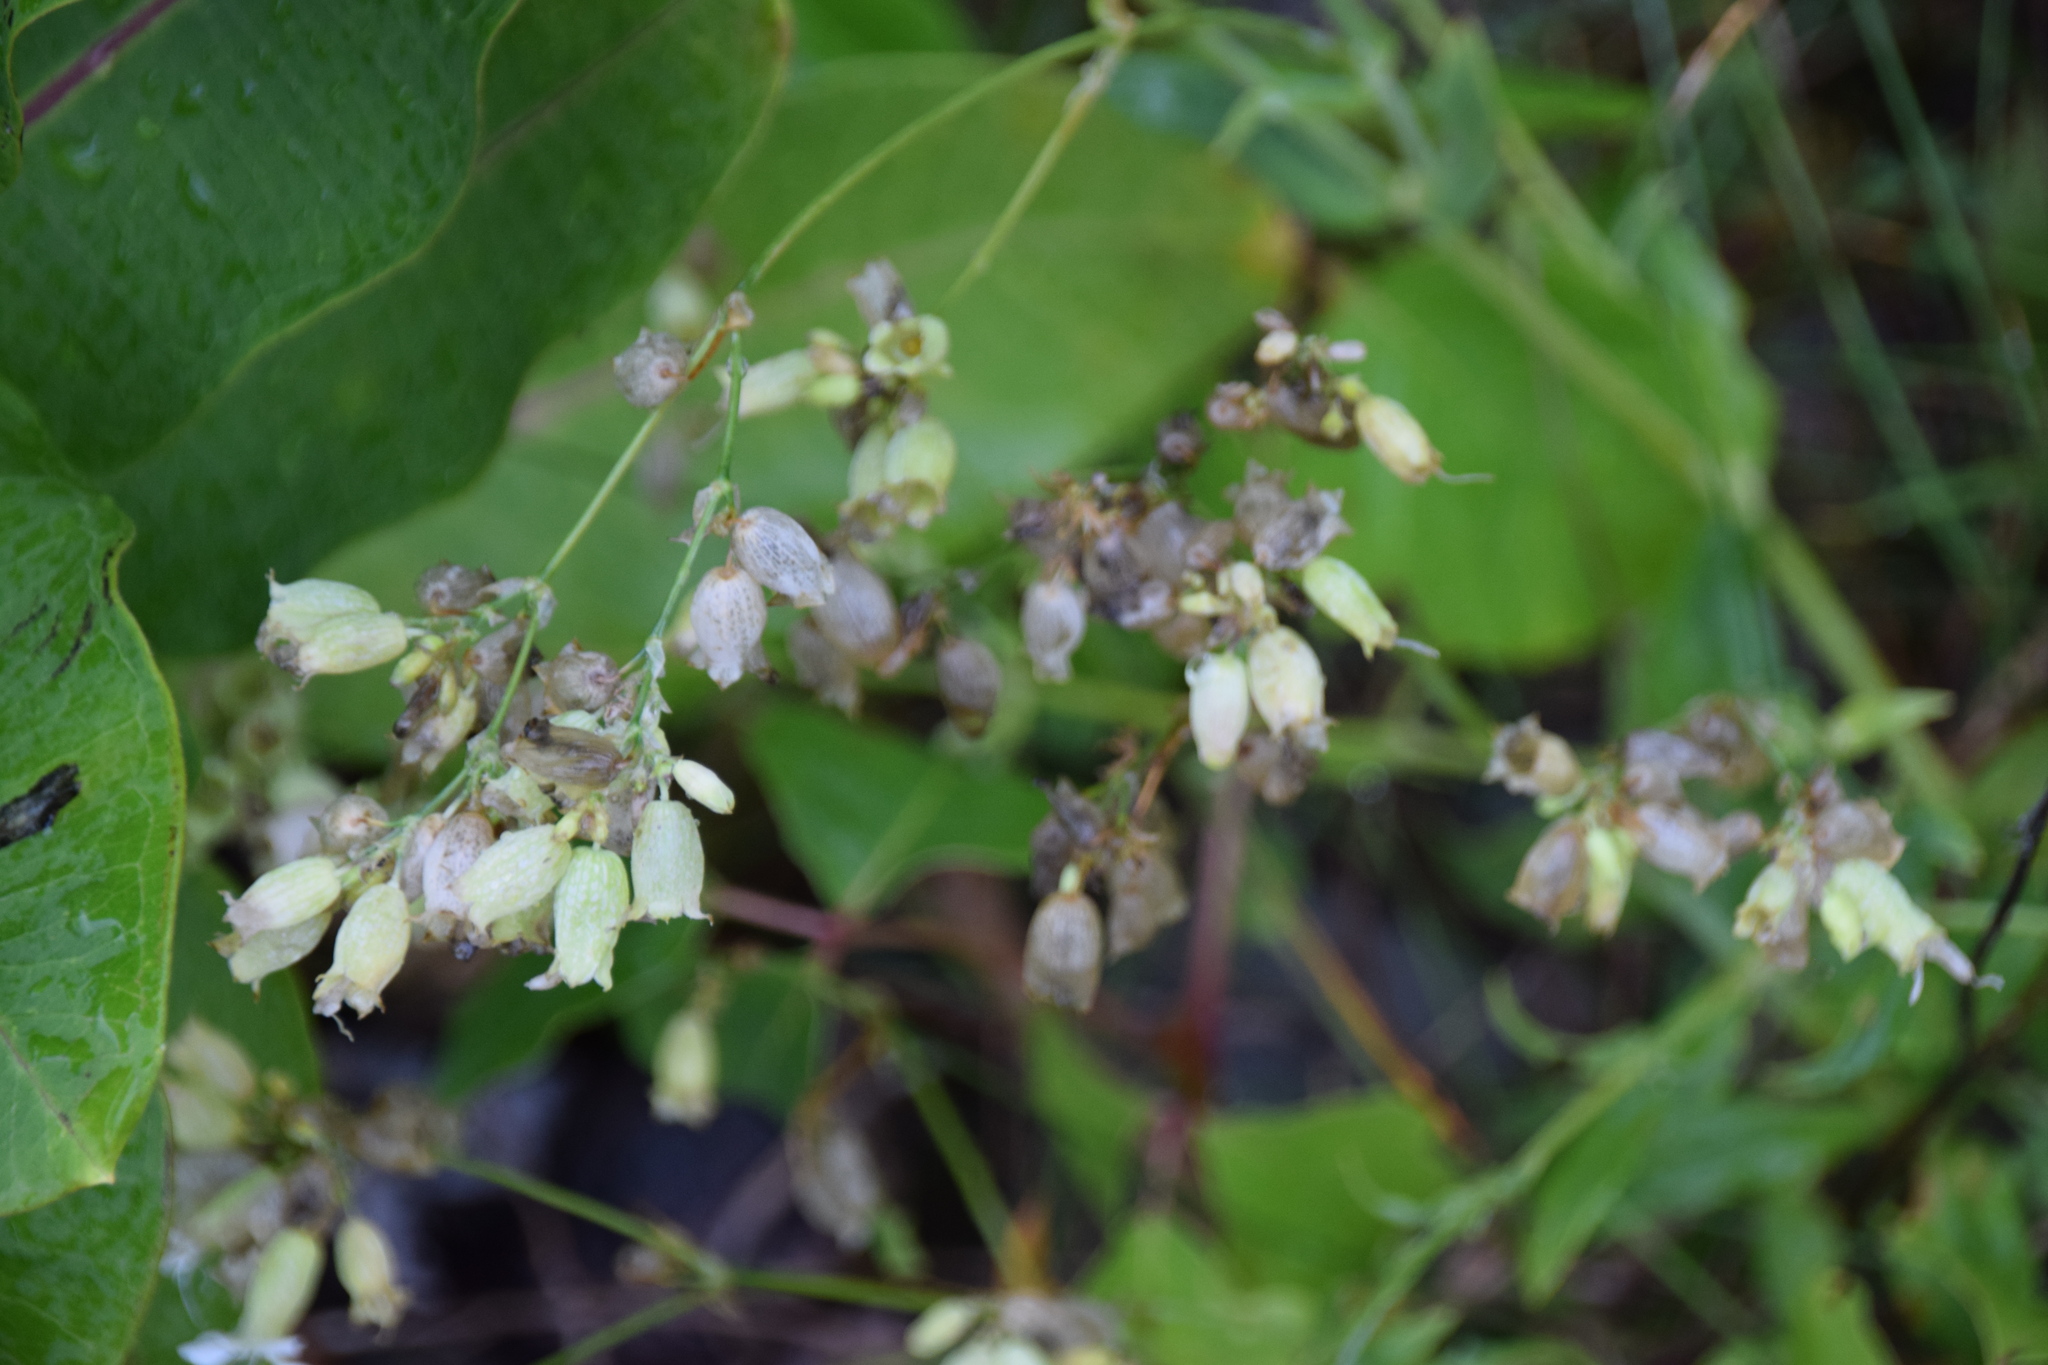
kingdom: Plantae
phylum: Tracheophyta
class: Magnoliopsida
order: Caryophyllales
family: Caryophyllaceae
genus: Silene
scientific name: Silene vulgaris
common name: Bladder campion
